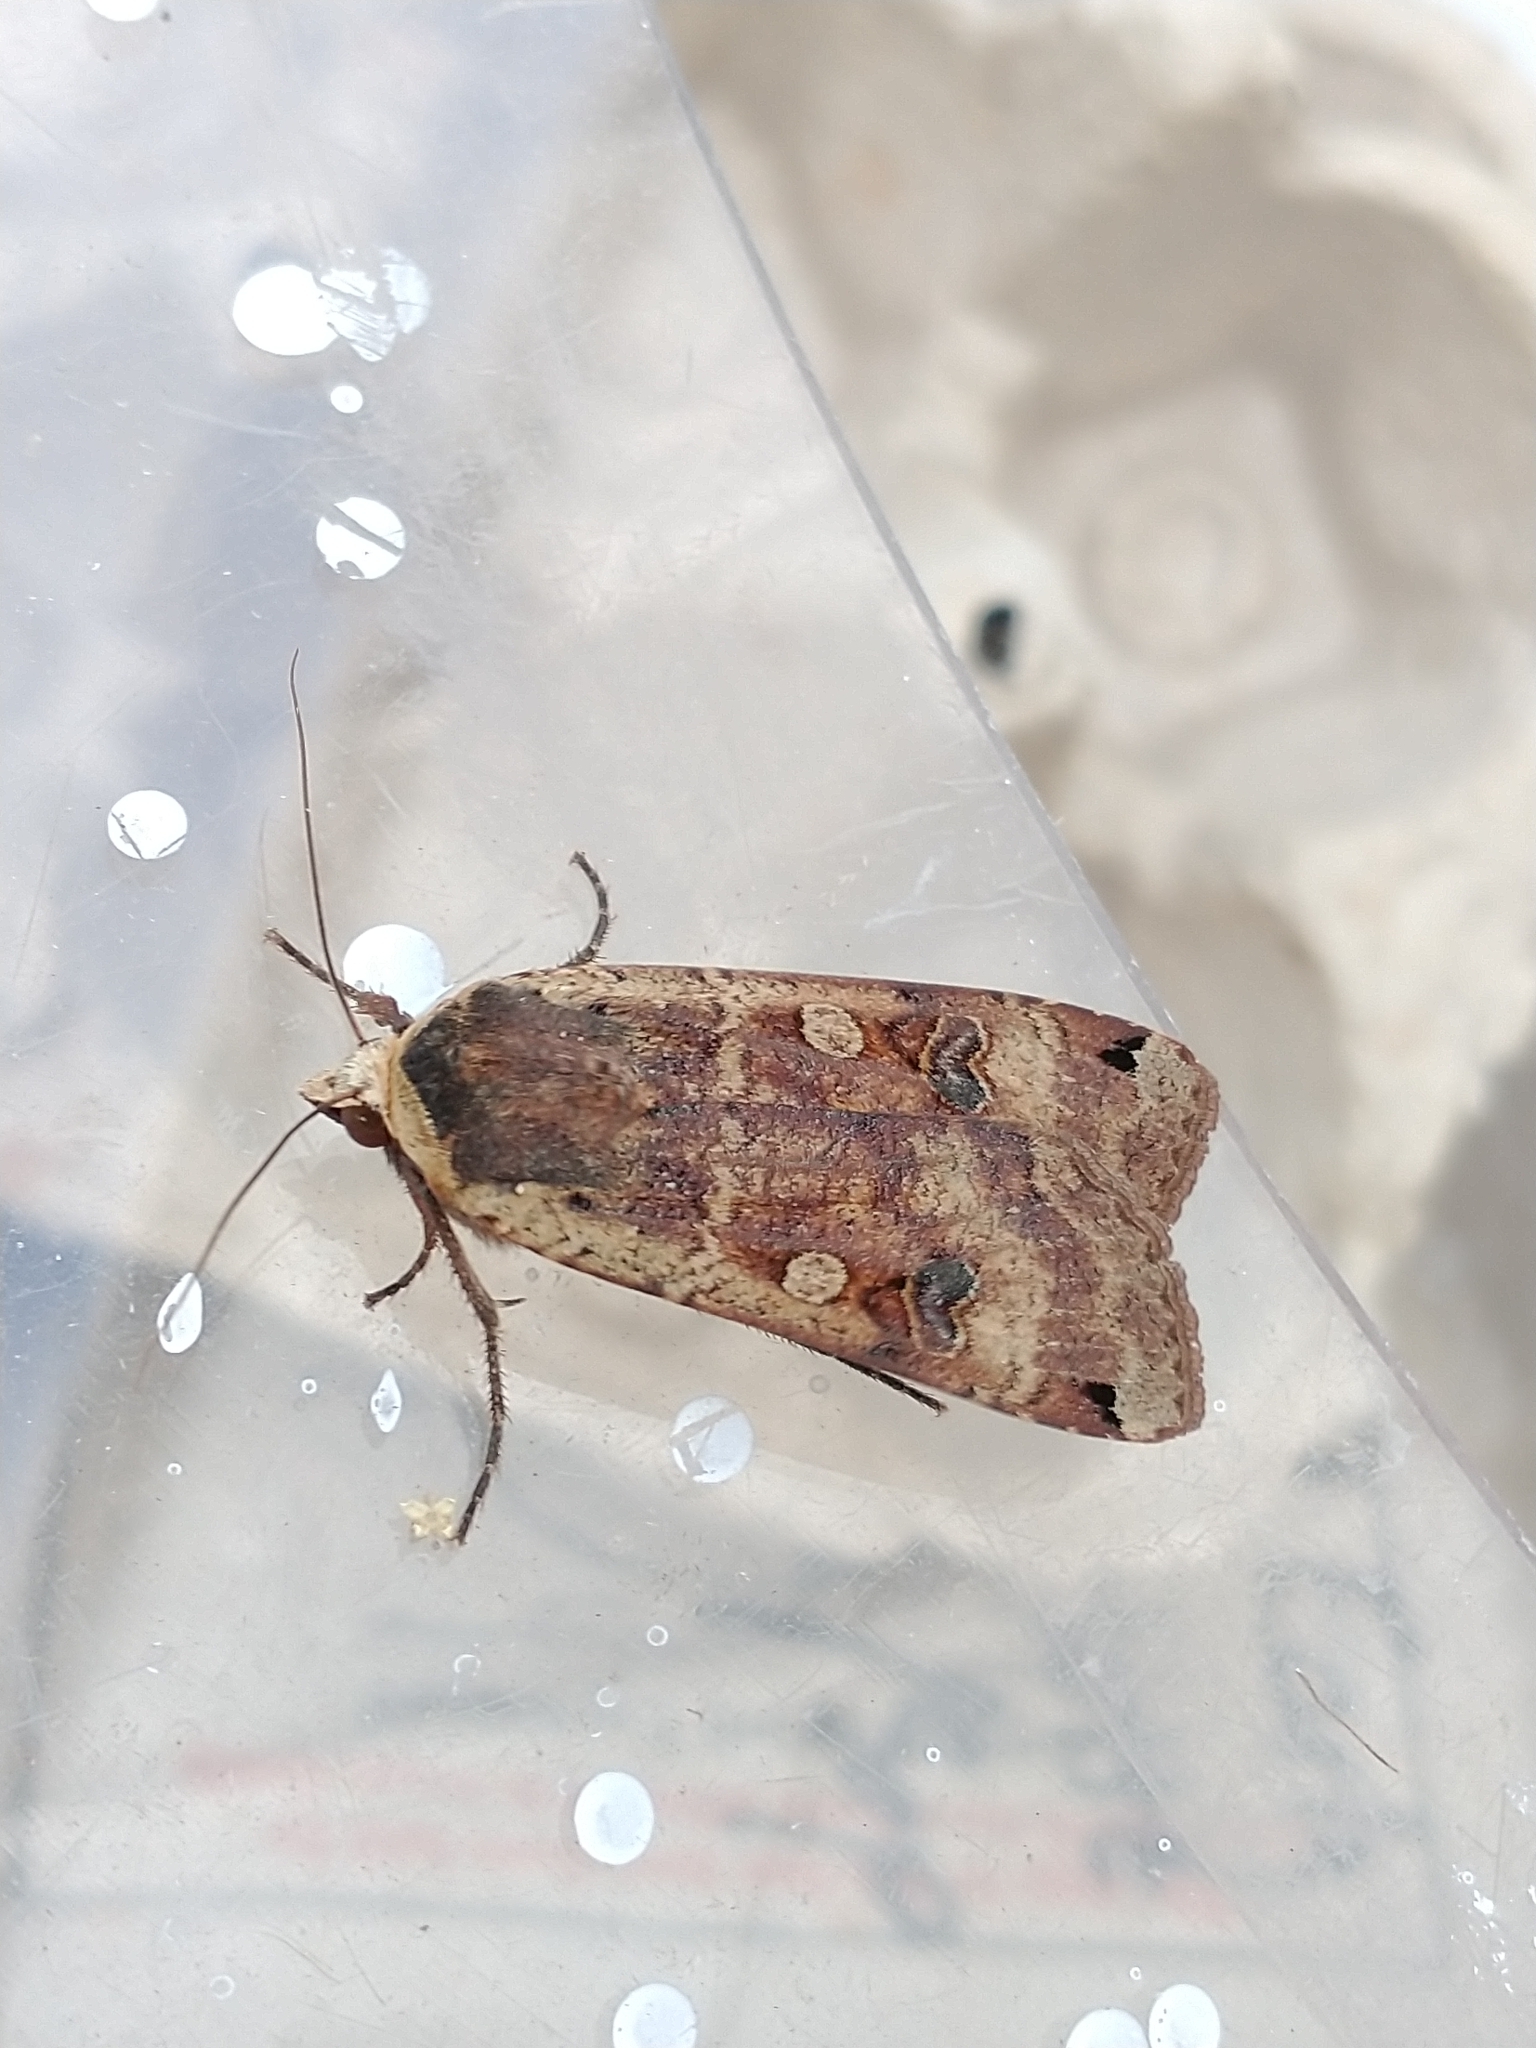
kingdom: Animalia
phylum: Arthropoda
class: Insecta
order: Lepidoptera
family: Noctuidae
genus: Noctua
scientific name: Noctua pronuba
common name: Large yellow underwing
